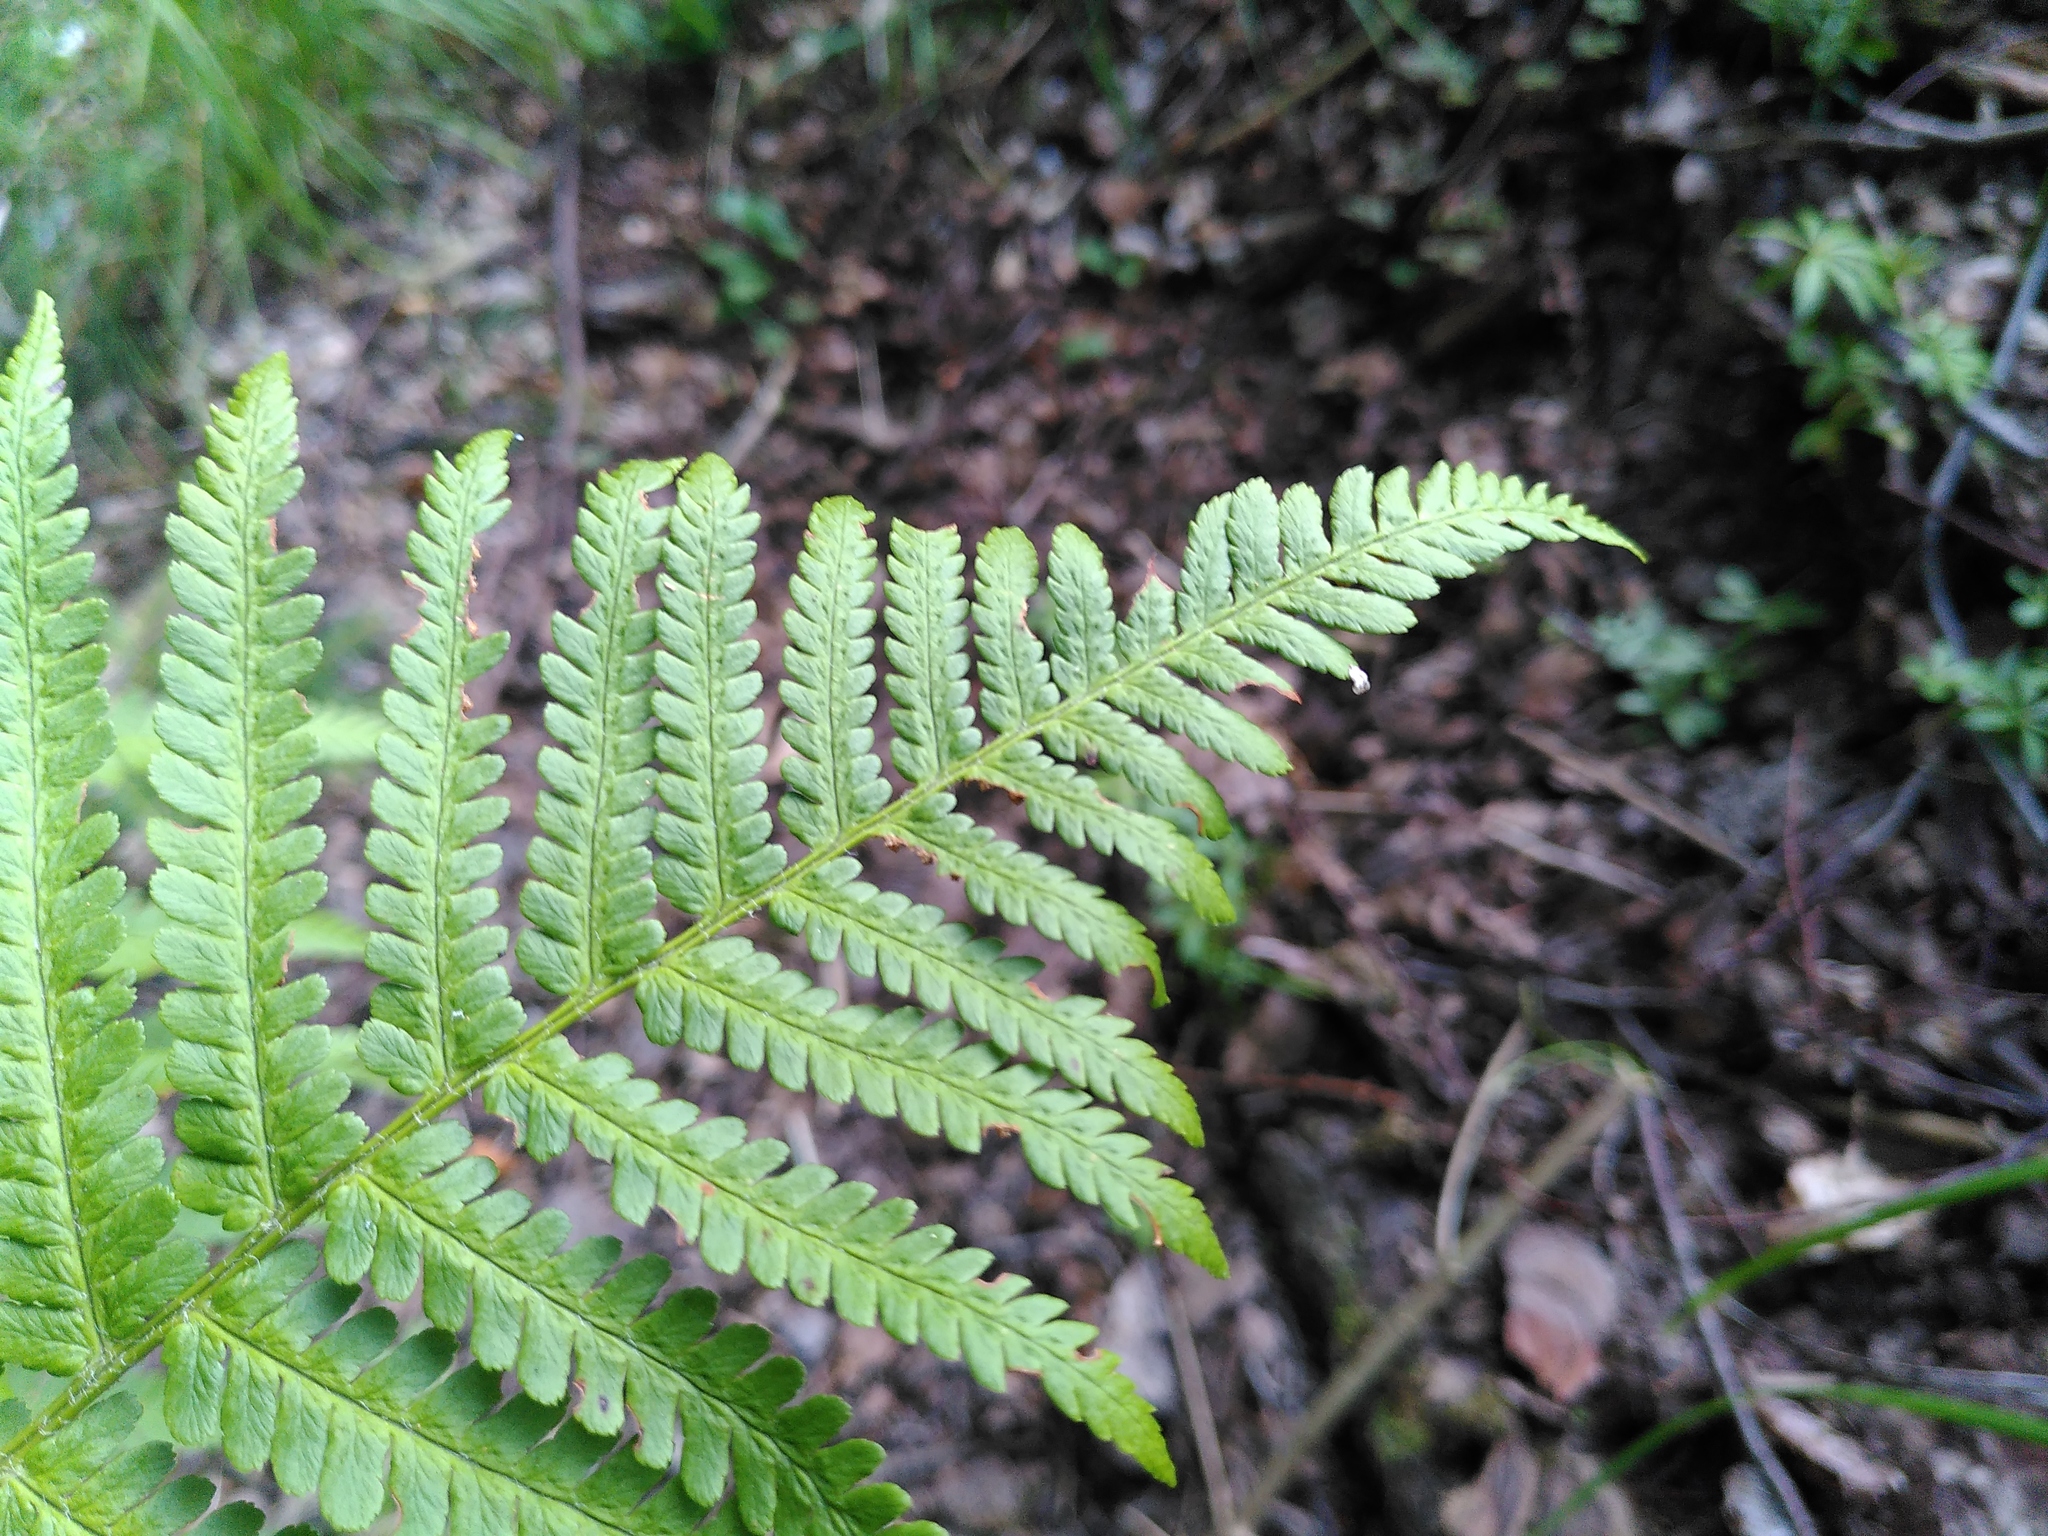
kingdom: Plantae
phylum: Tracheophyta
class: Polypodiopsida
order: Polypodiales
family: Dryopteridaceae
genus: Dryopteris
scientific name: Dryopteris filix-mas
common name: Male fern
